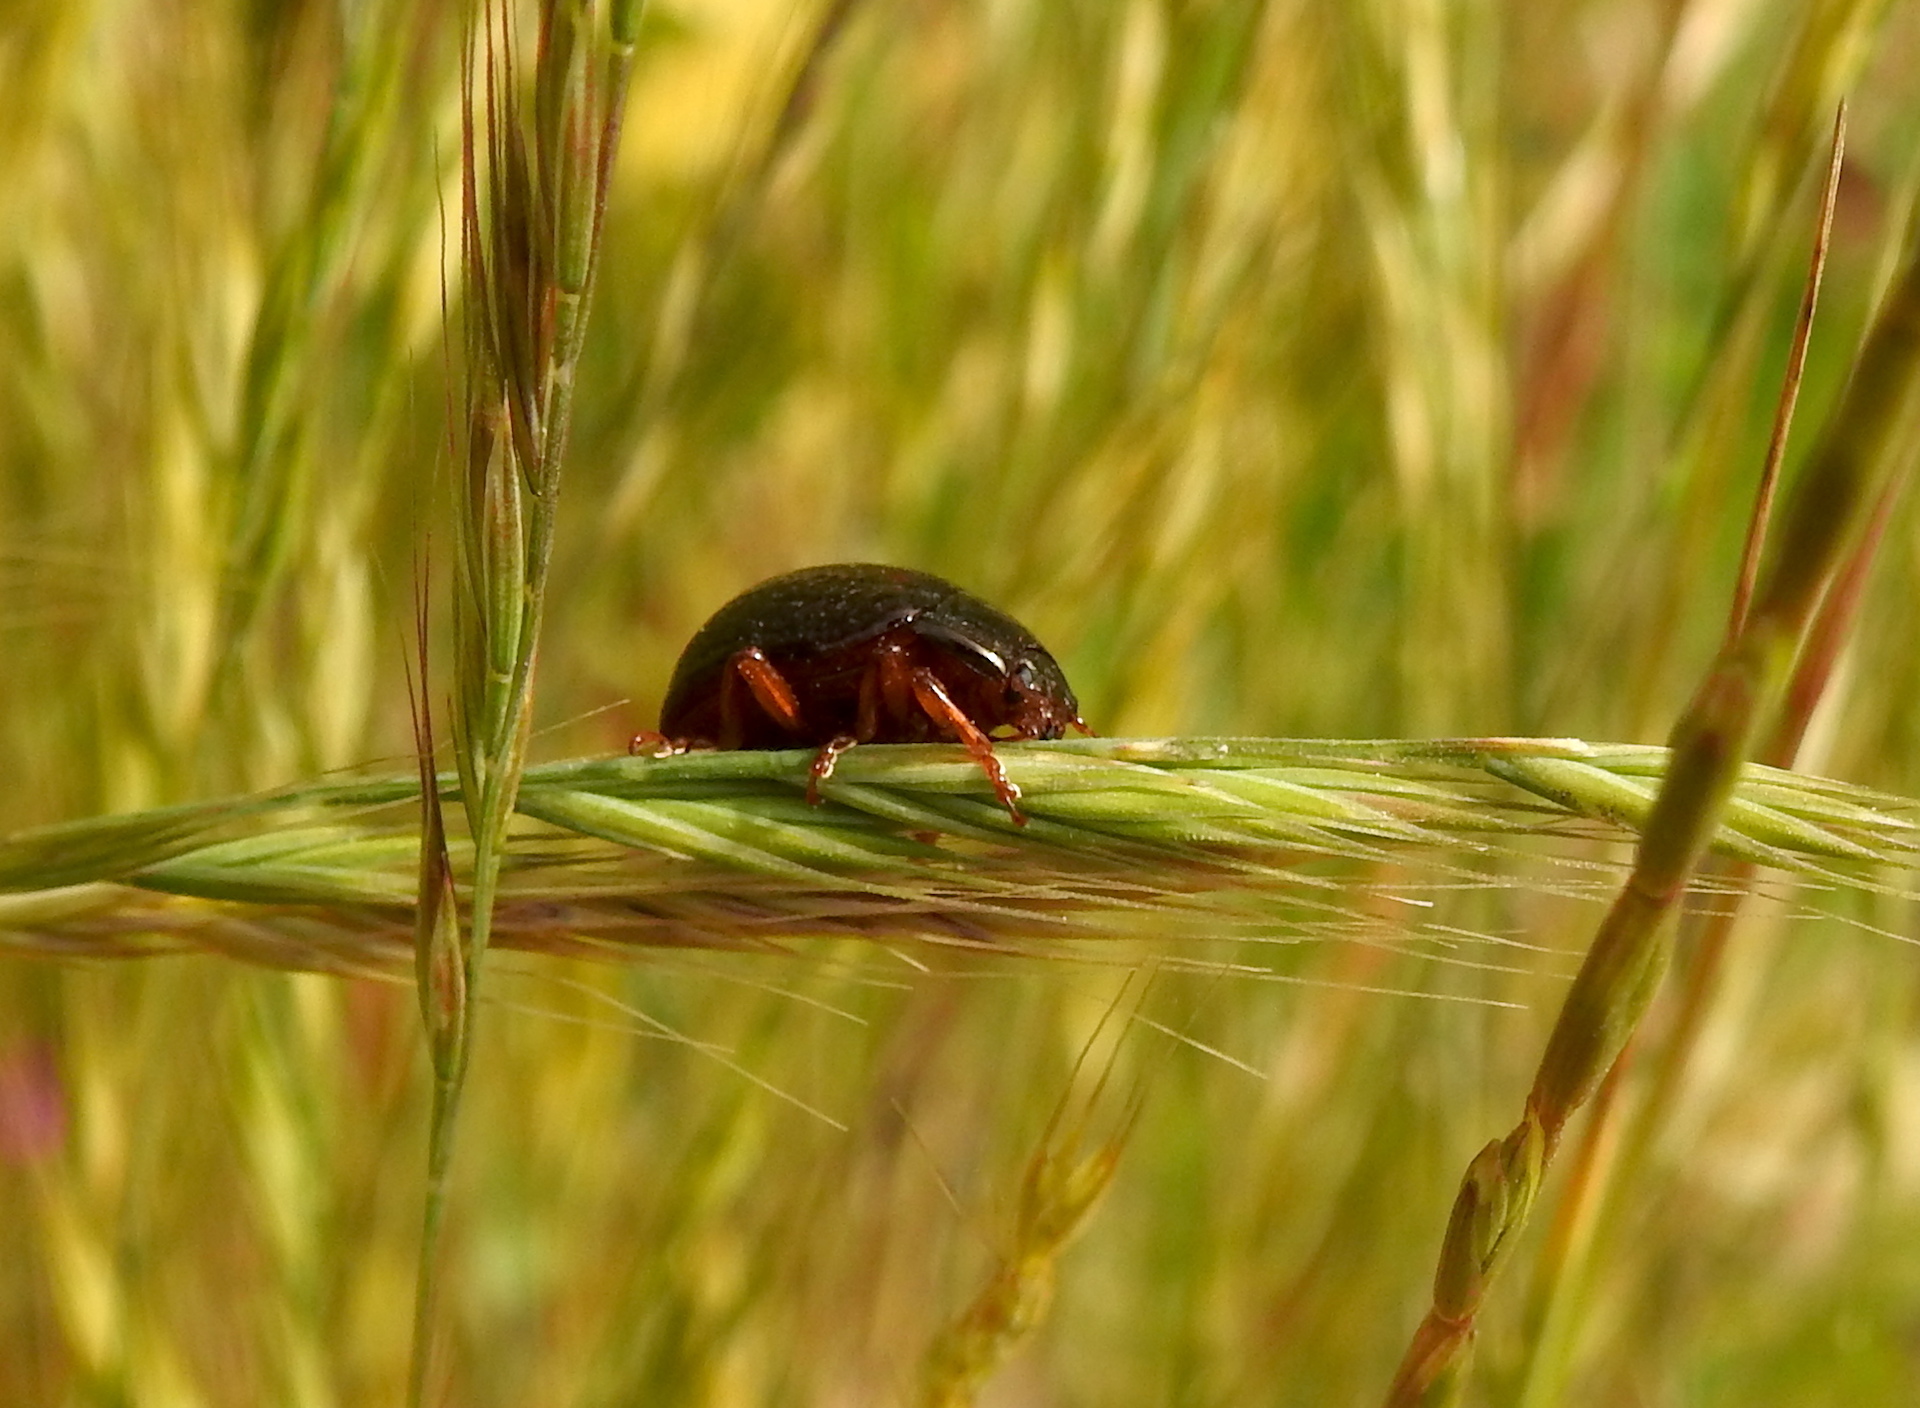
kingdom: Animalia
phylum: Arthropoda
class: Insecta
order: Coleoptera
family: Chrysomelidae
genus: Chrysolina
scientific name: Chrysolina bankii
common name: Leaf beetle
